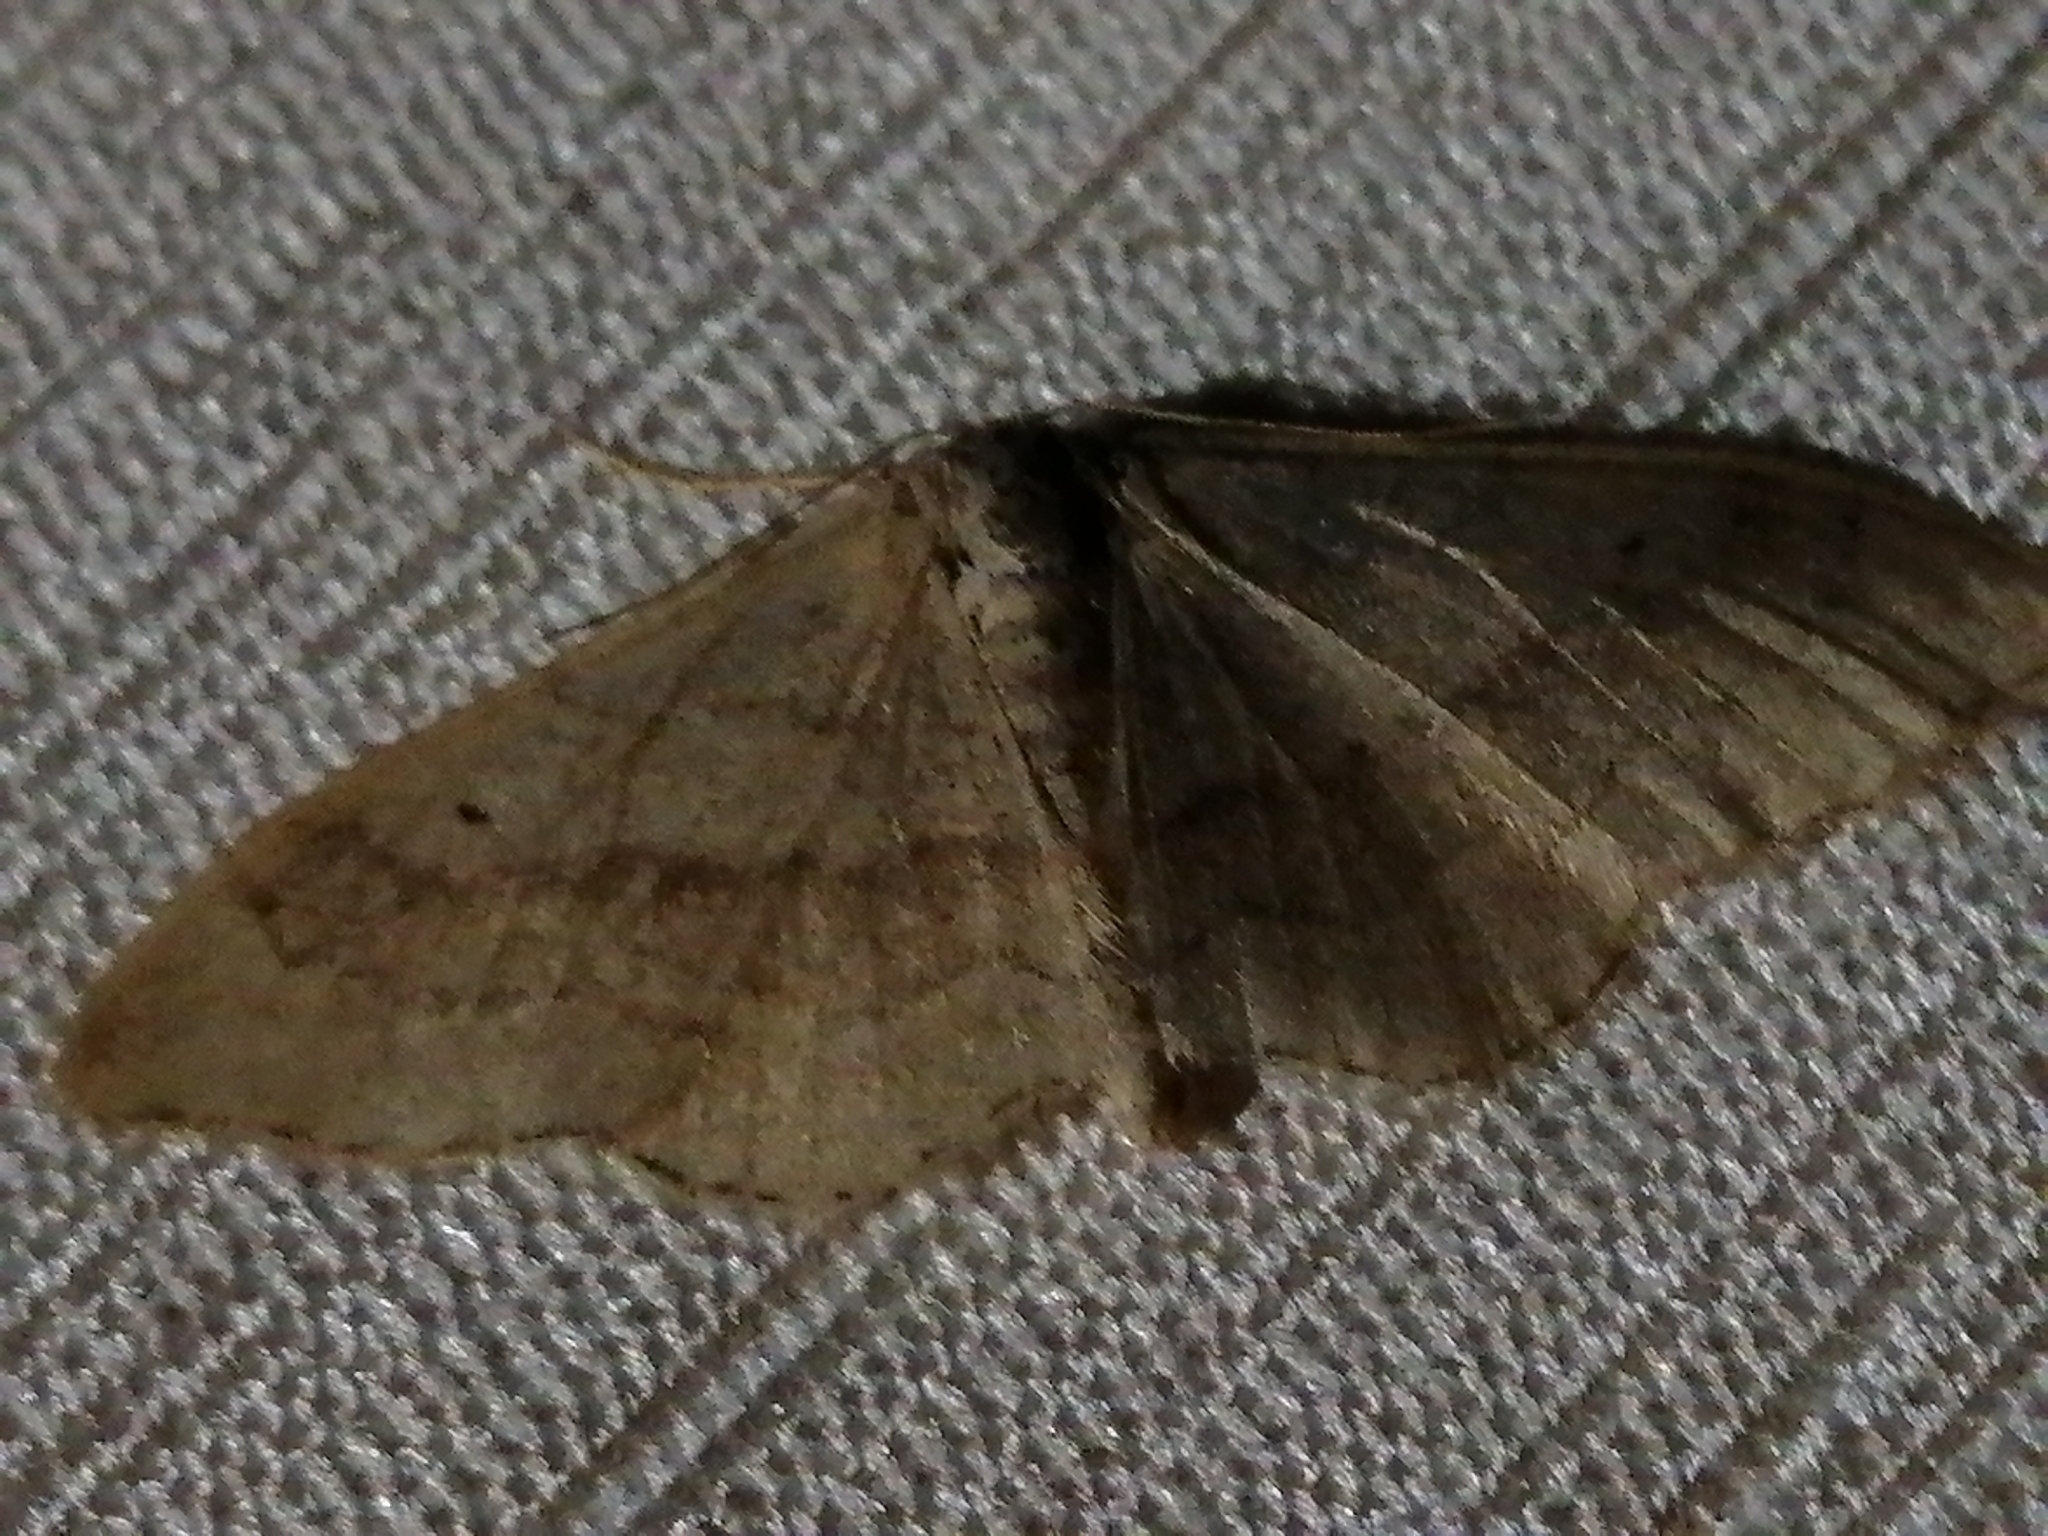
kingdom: Animalia
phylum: Arthropoda
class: Insecta
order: Lepidoptera
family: Geometridae
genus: Idaea
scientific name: Idaea aversata
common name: Riband wave
